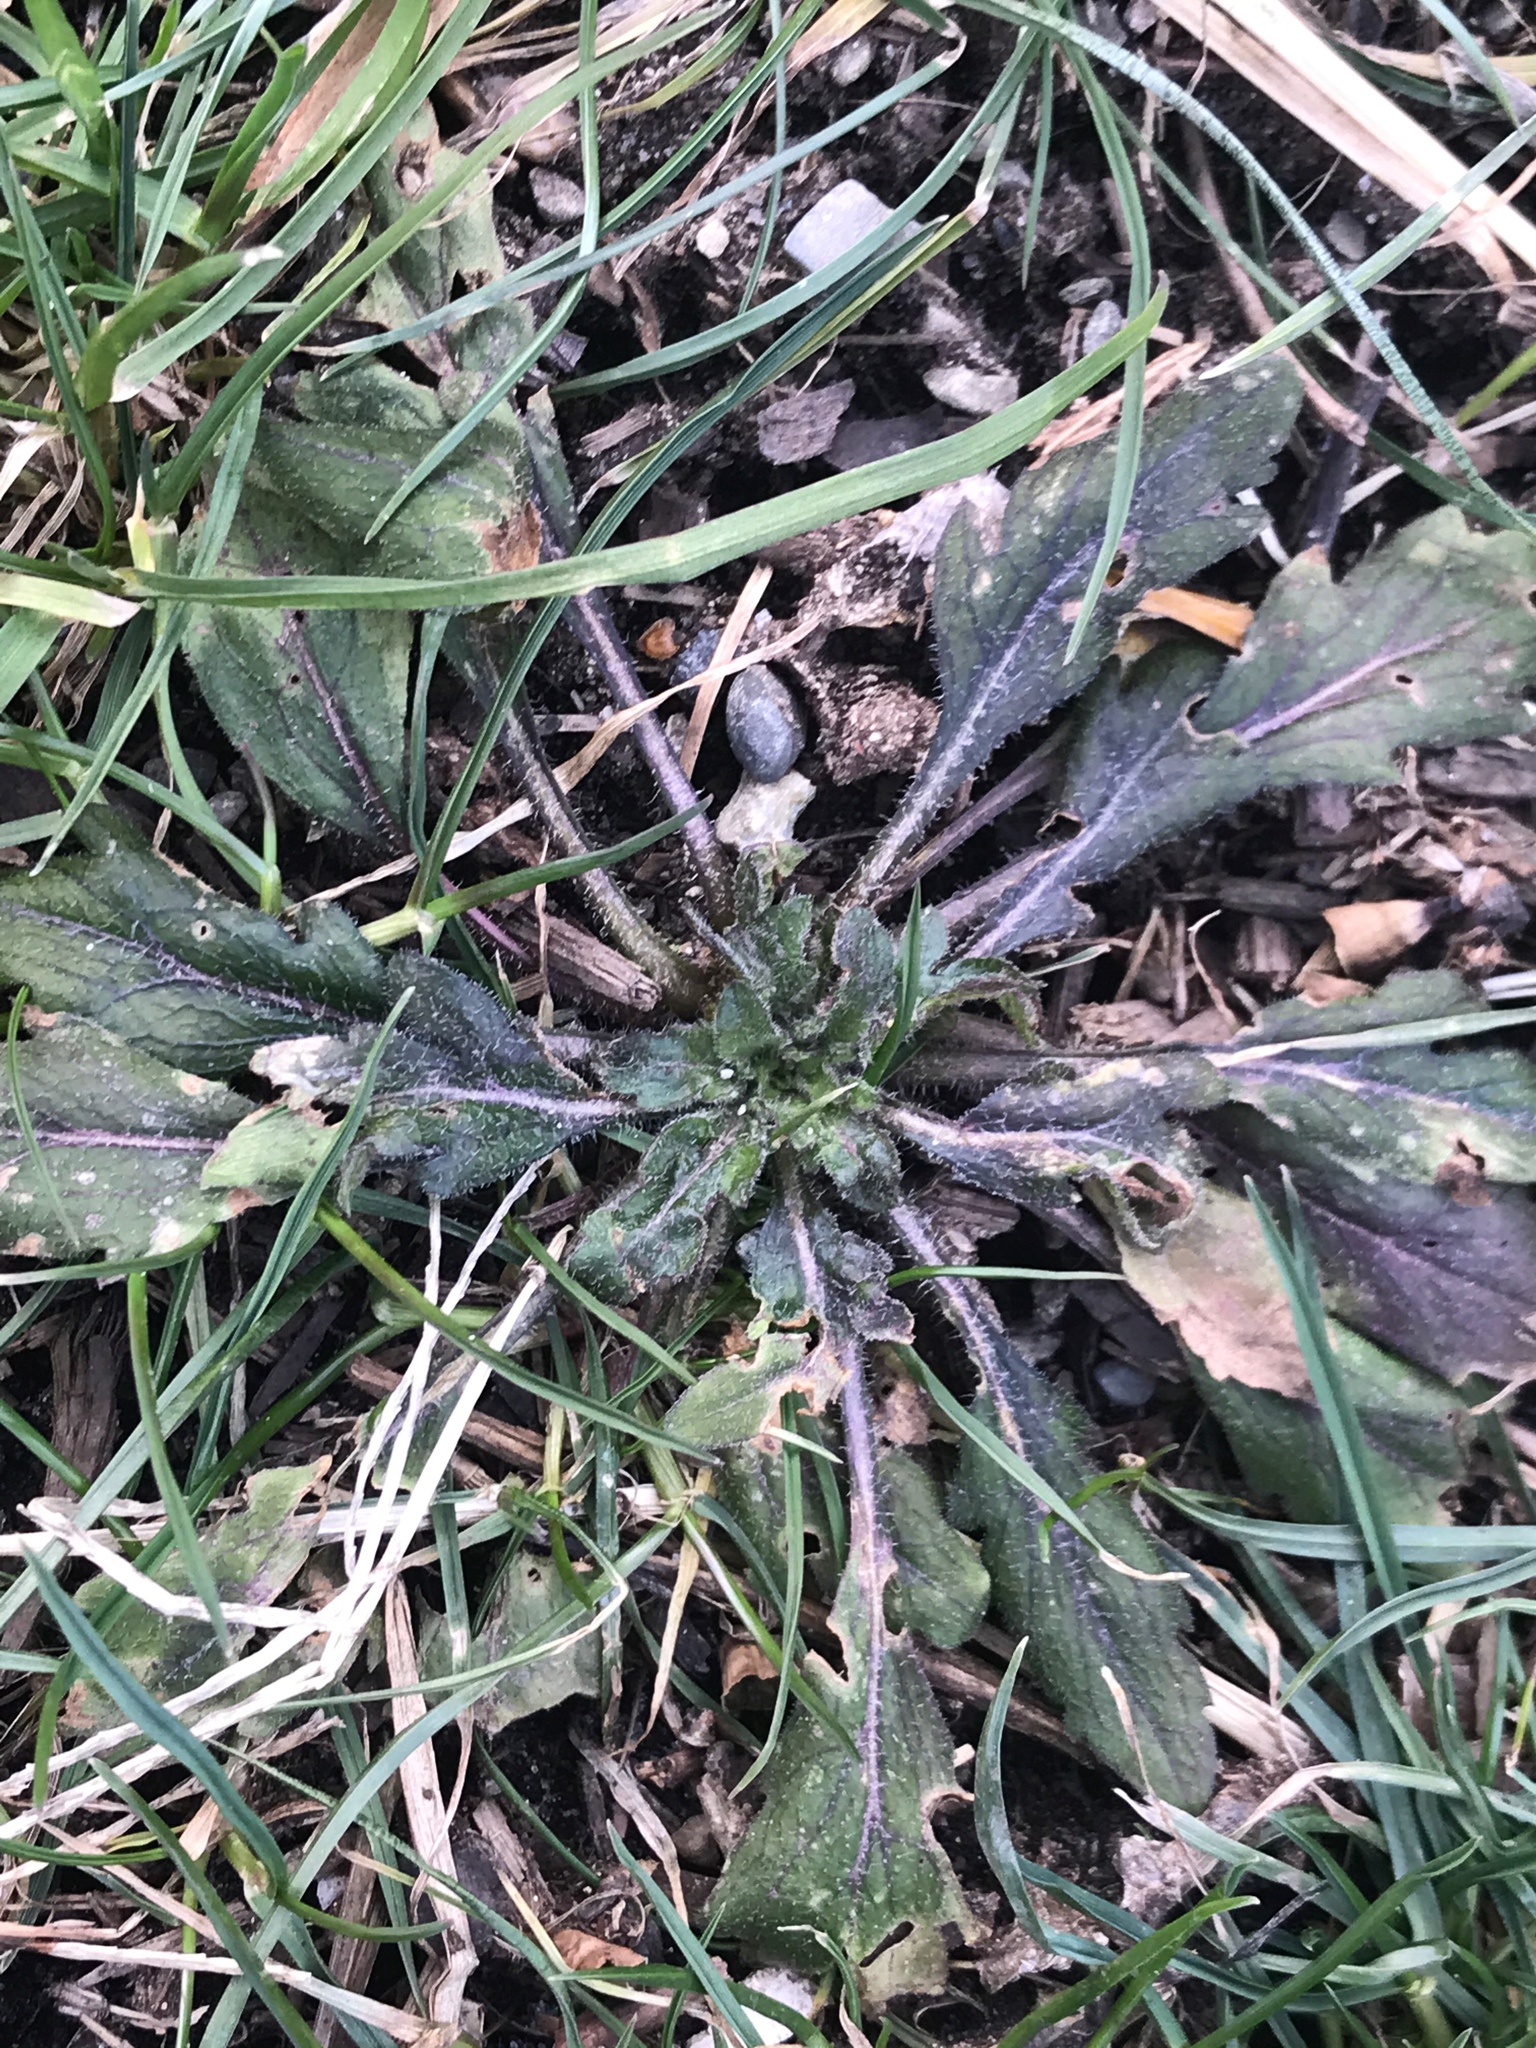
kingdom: Plantae
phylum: Tracheophyta
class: Magnoliopsida
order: Asterales
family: Asteraceae
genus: Erigeron
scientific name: Erigeron canadensis
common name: Canadian fleabane
